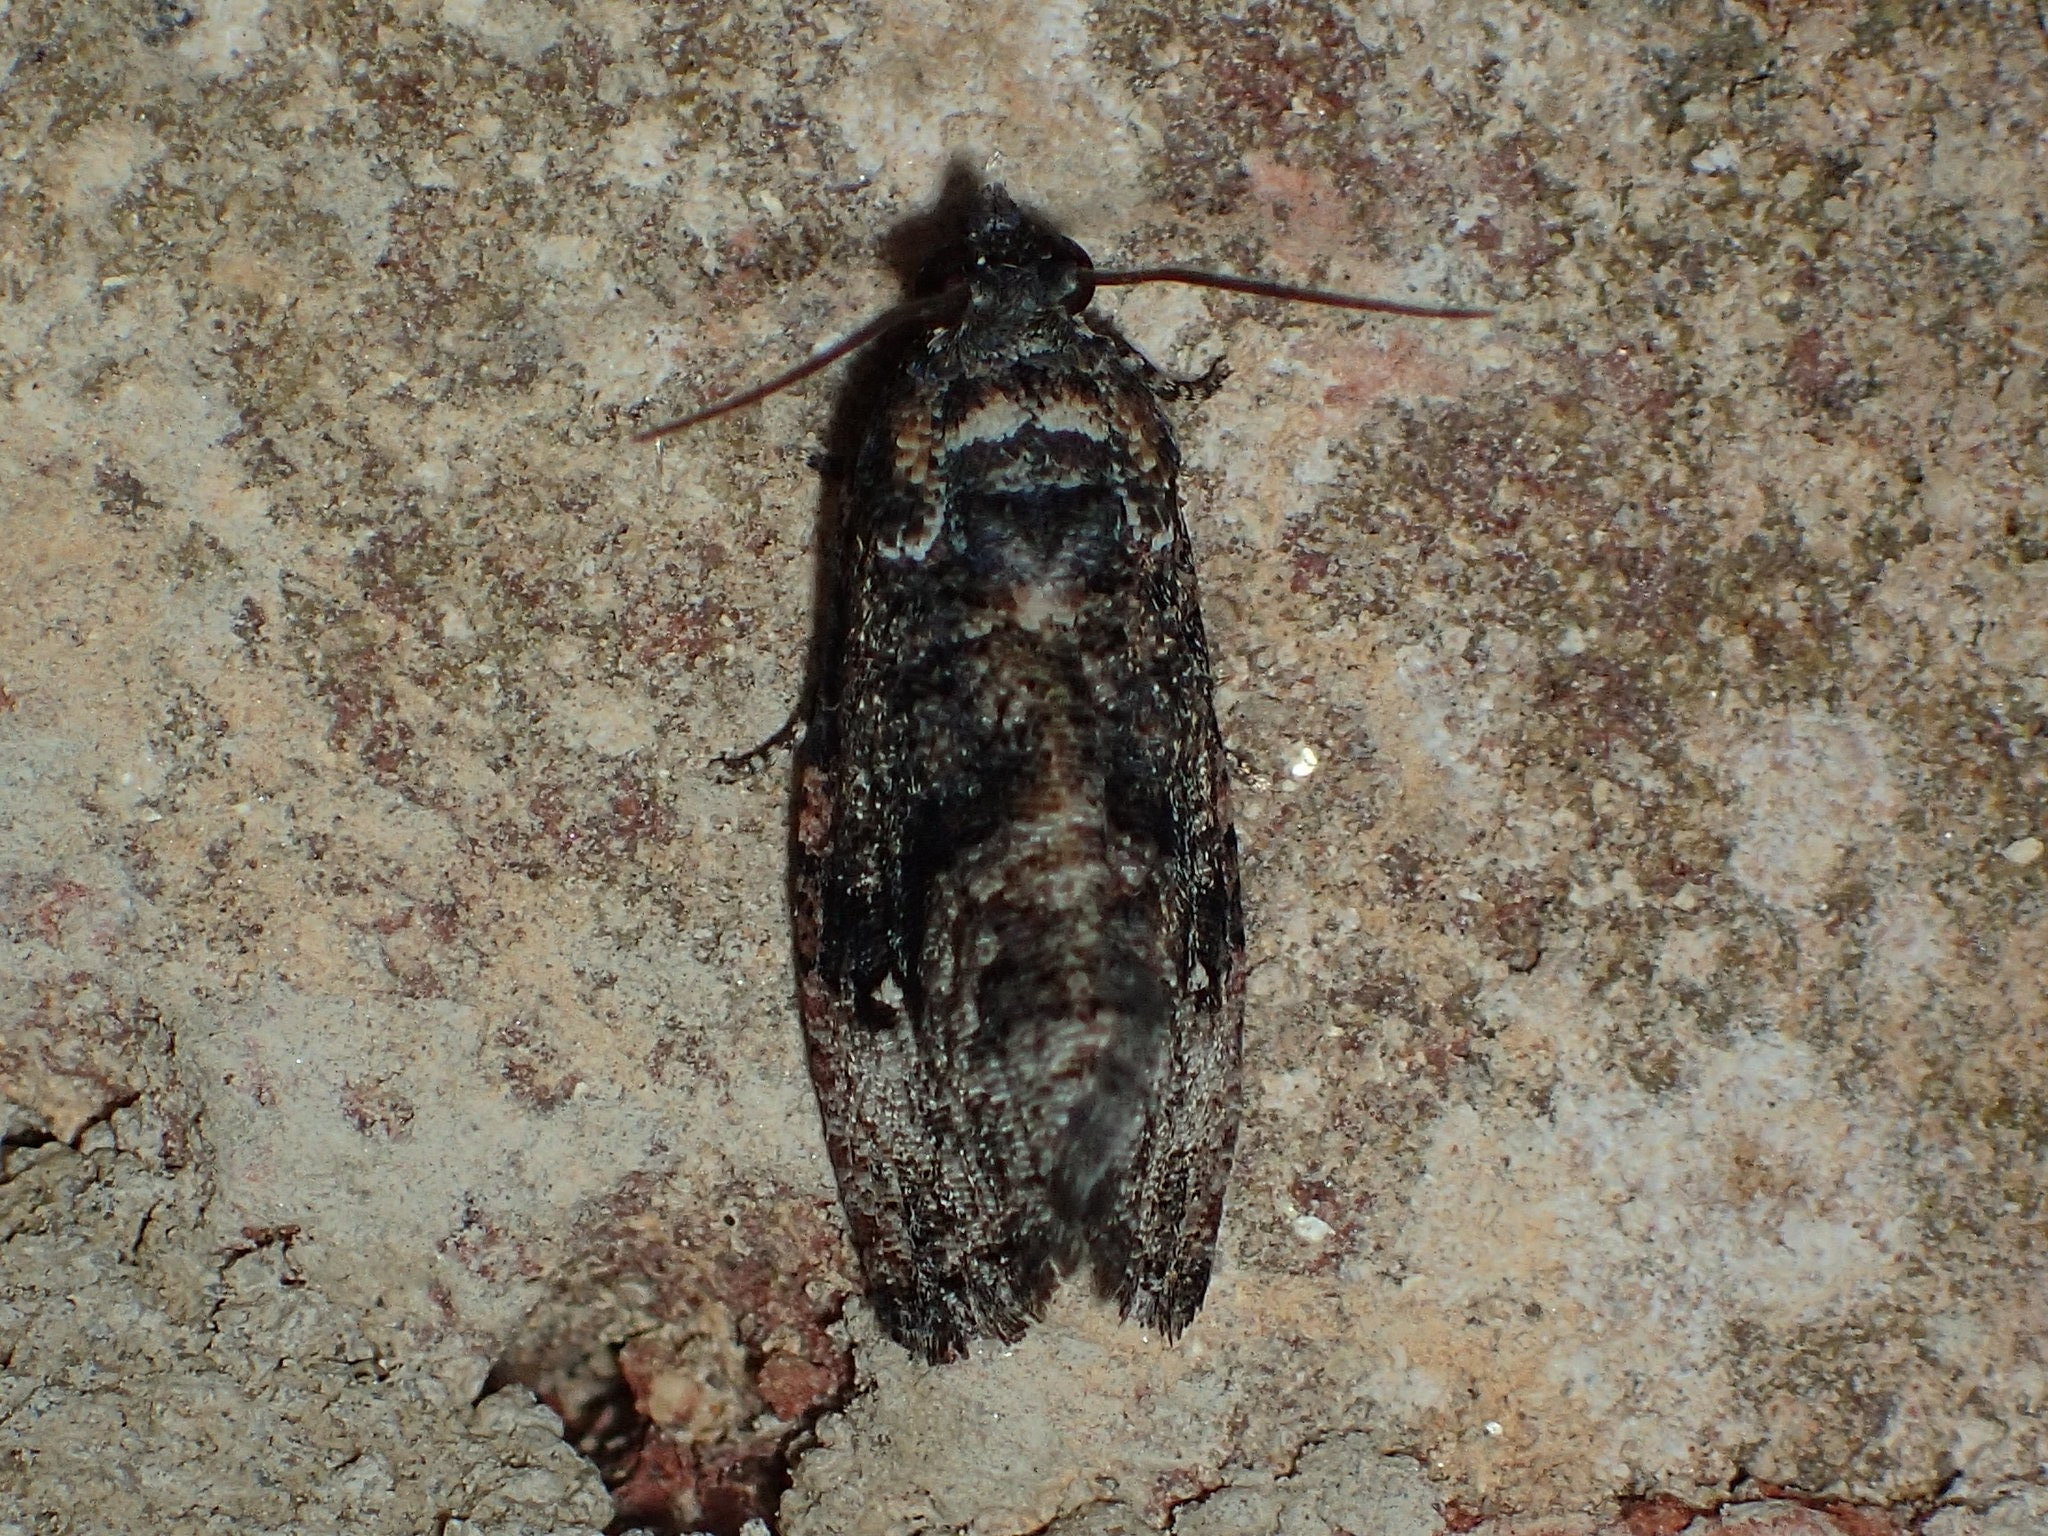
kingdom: Animalia
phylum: Arthropoda
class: Insecta
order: Lepidoptera
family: Tortricidae
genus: Gymnandrosoma
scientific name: Gymnandrosoma punctidiscanum
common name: Dotted ecdytolopha moth
